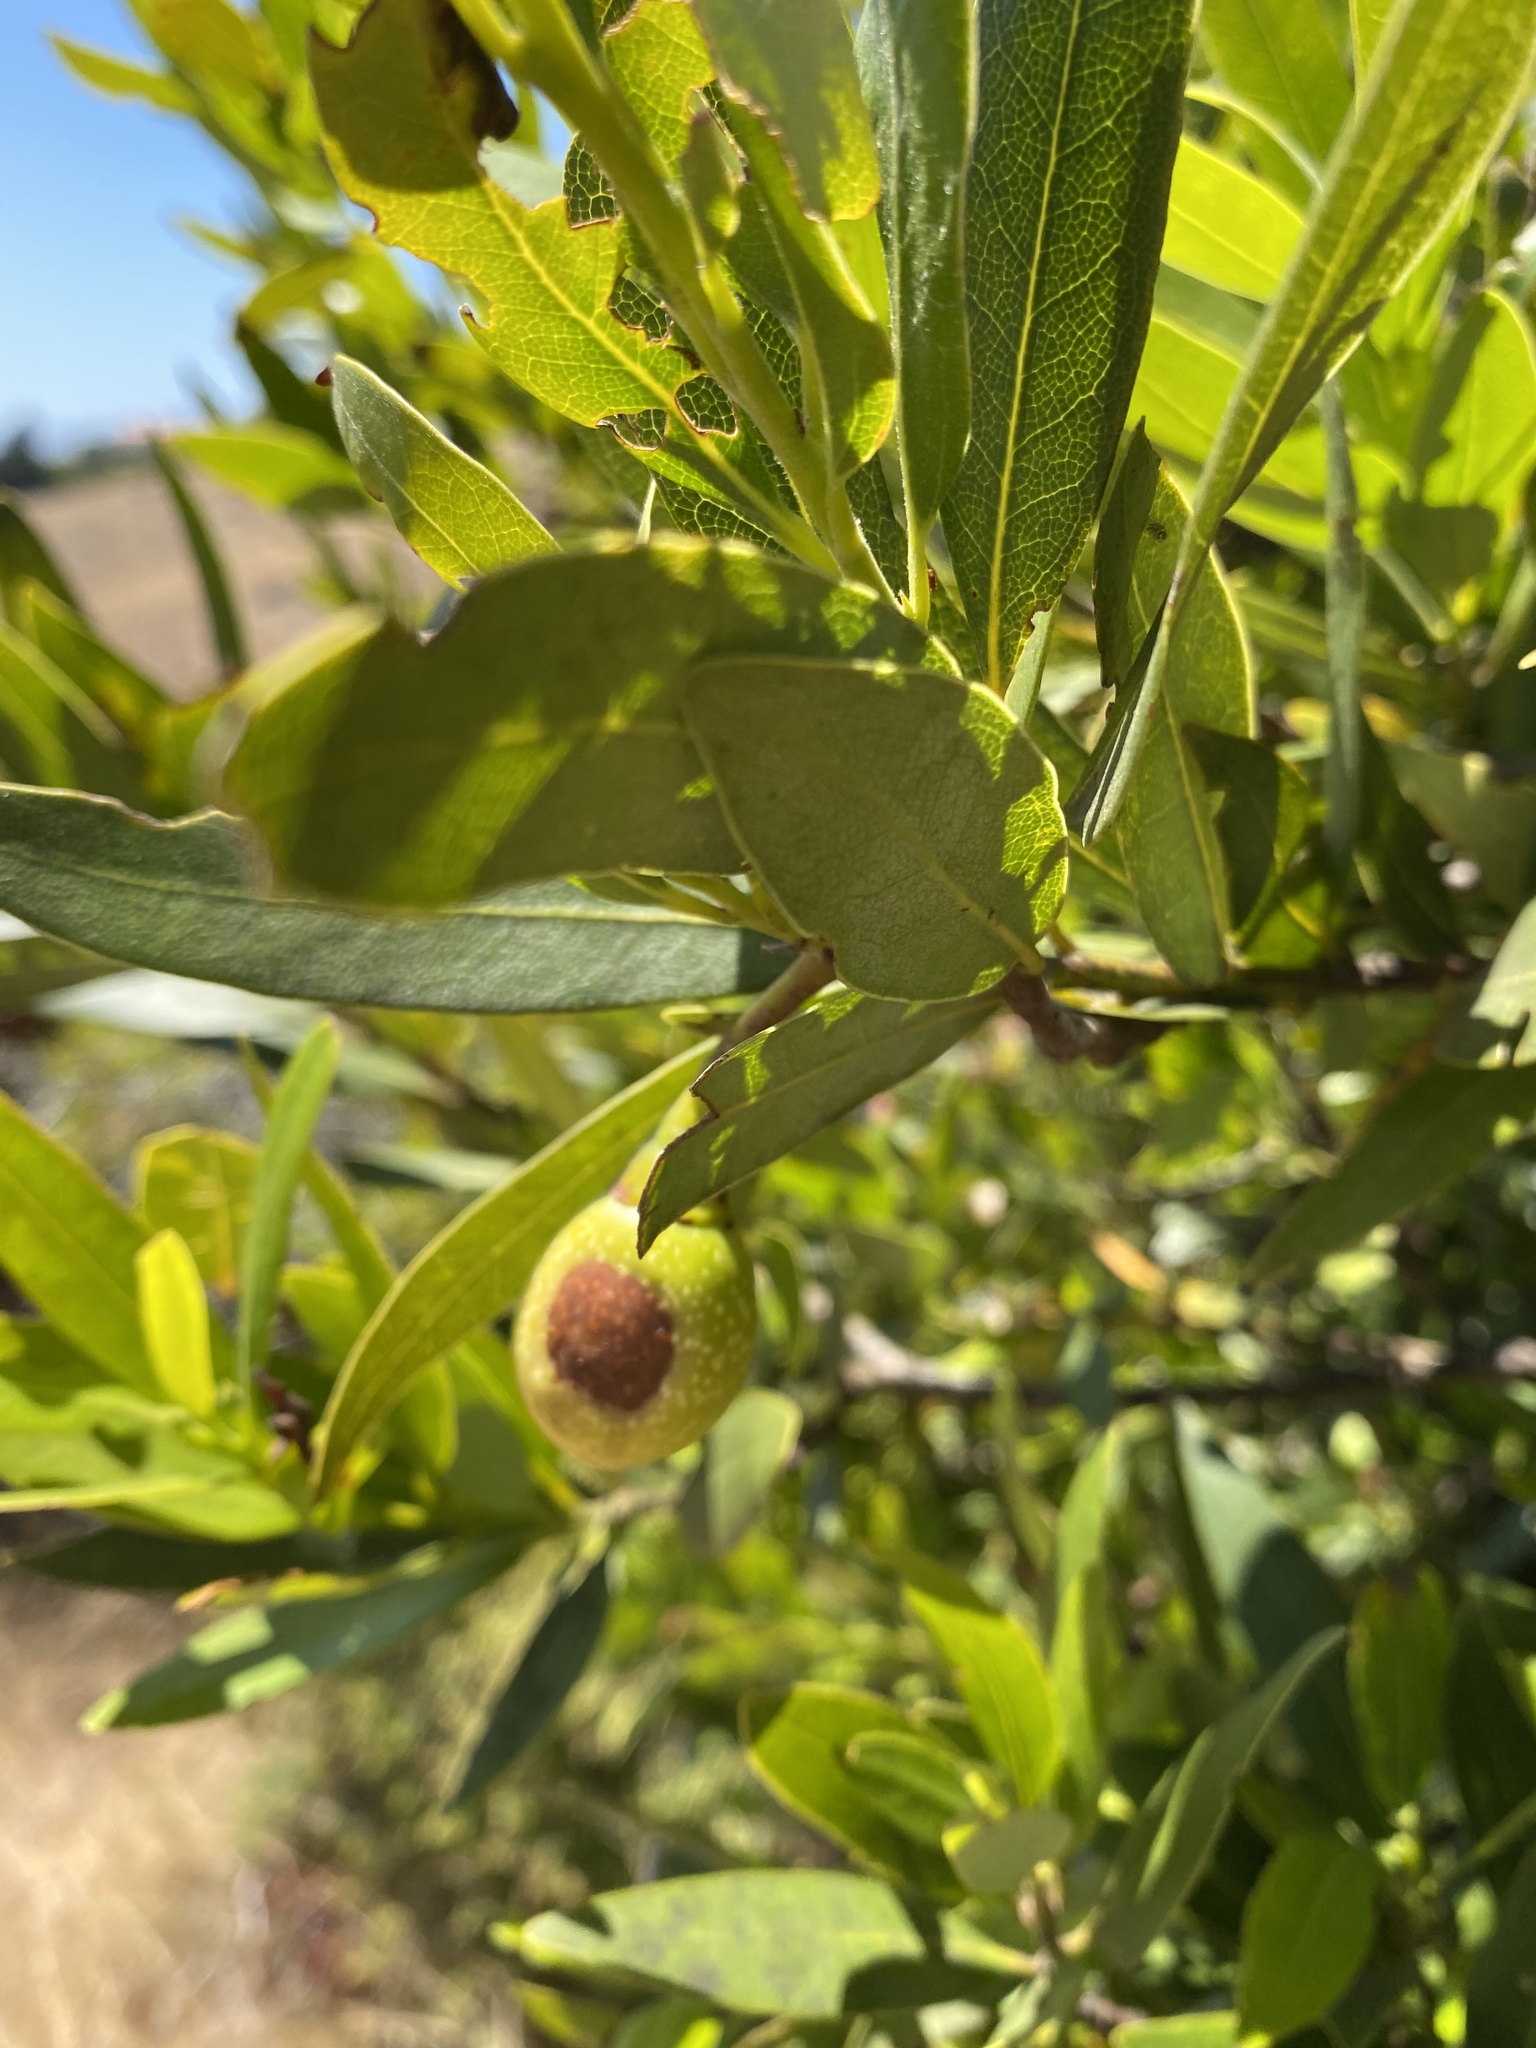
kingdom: Plantae
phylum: Tracheophyta
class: Magnoliopsida
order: Laurales
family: Lauraceae
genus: Umbellularia
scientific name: Umbellularia californica
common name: California bay
